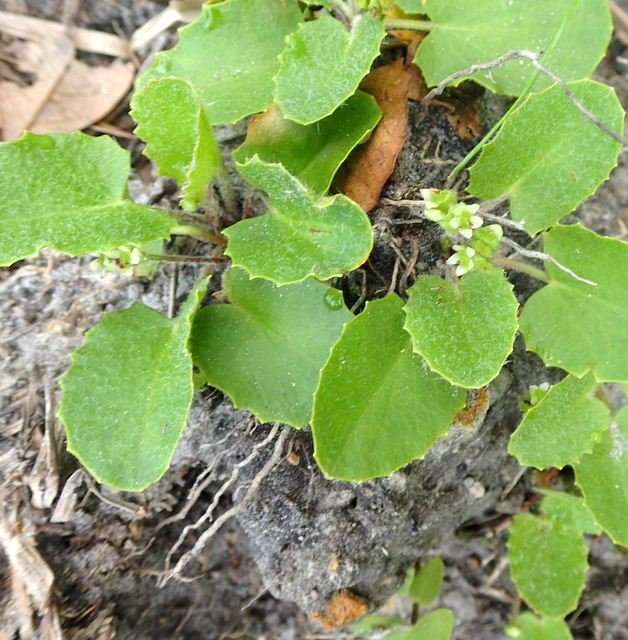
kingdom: Plantae
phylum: Tracheophyta
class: Magnoliopsida
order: Apiales
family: Apiaceae
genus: Centella
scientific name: Centella erecta
